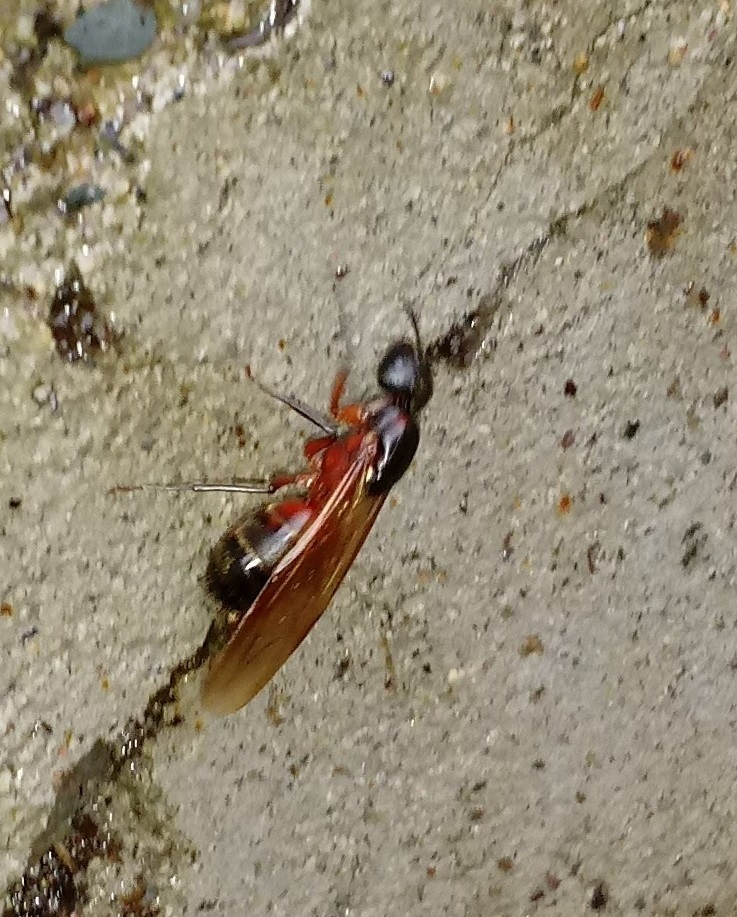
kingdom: Animalia
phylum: Arthropoda
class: Insecta
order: Hymenoptera
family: Formicidae
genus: Camponotus
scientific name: Camponotus chromaiodes
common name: Red carpenter ant
